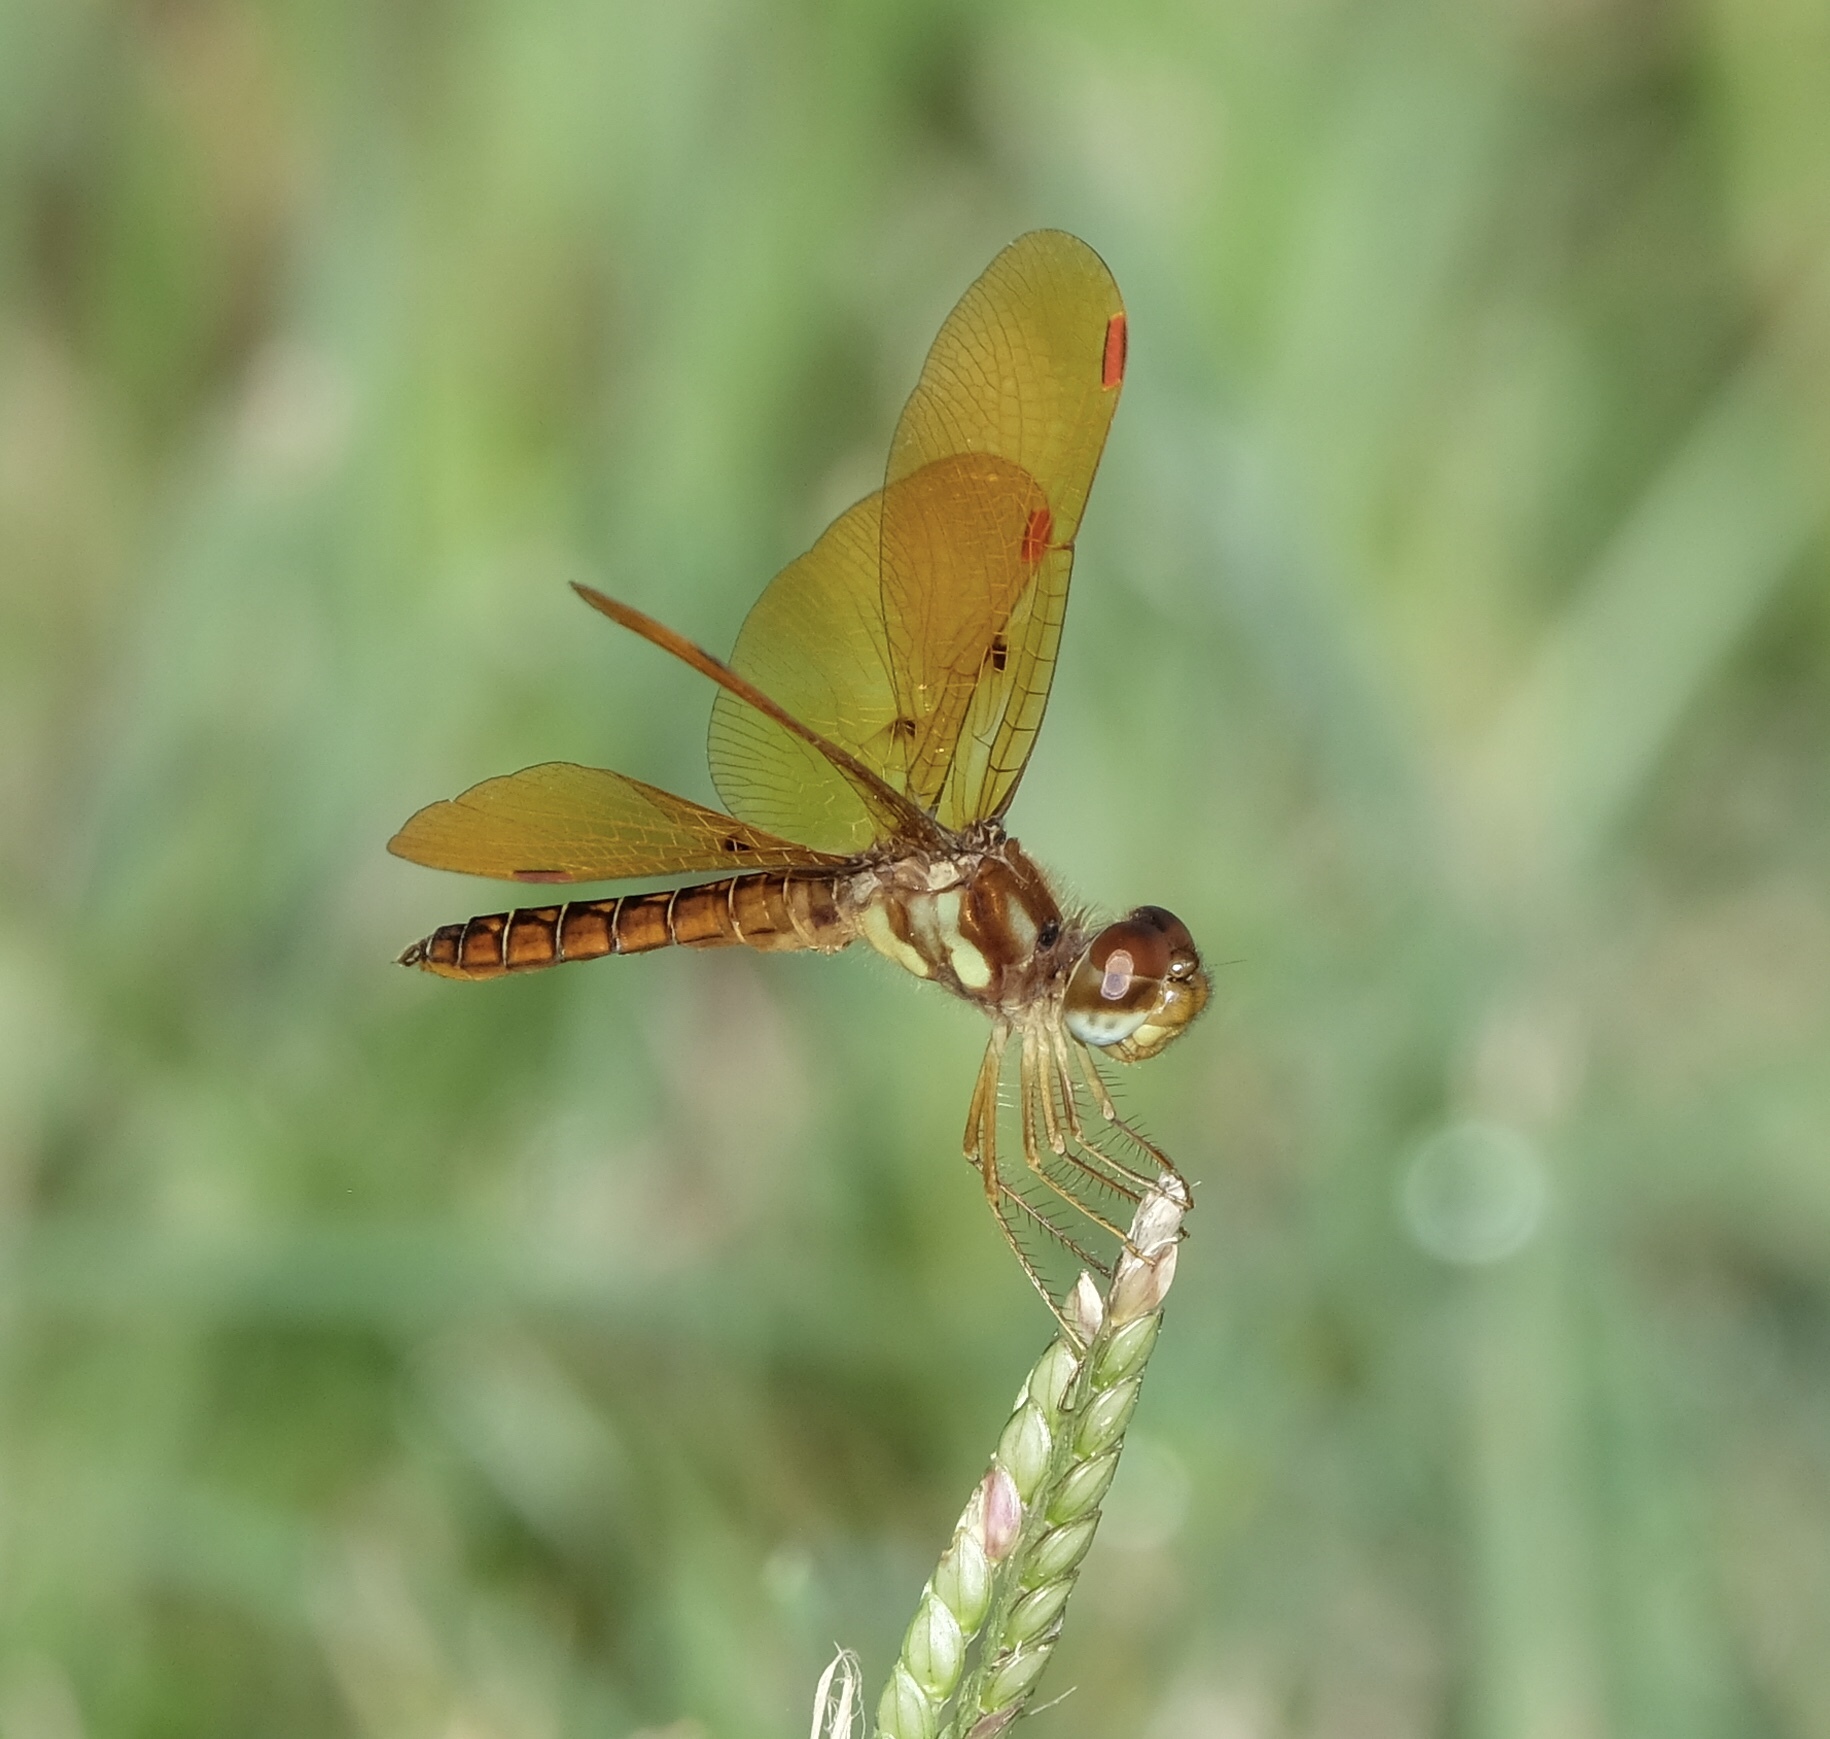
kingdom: Animalia
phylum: Arthropoda
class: Insecta
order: Odonata
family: Libellulidae
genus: Perithemis
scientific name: Perithemis tenera
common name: Eastern amberwing
